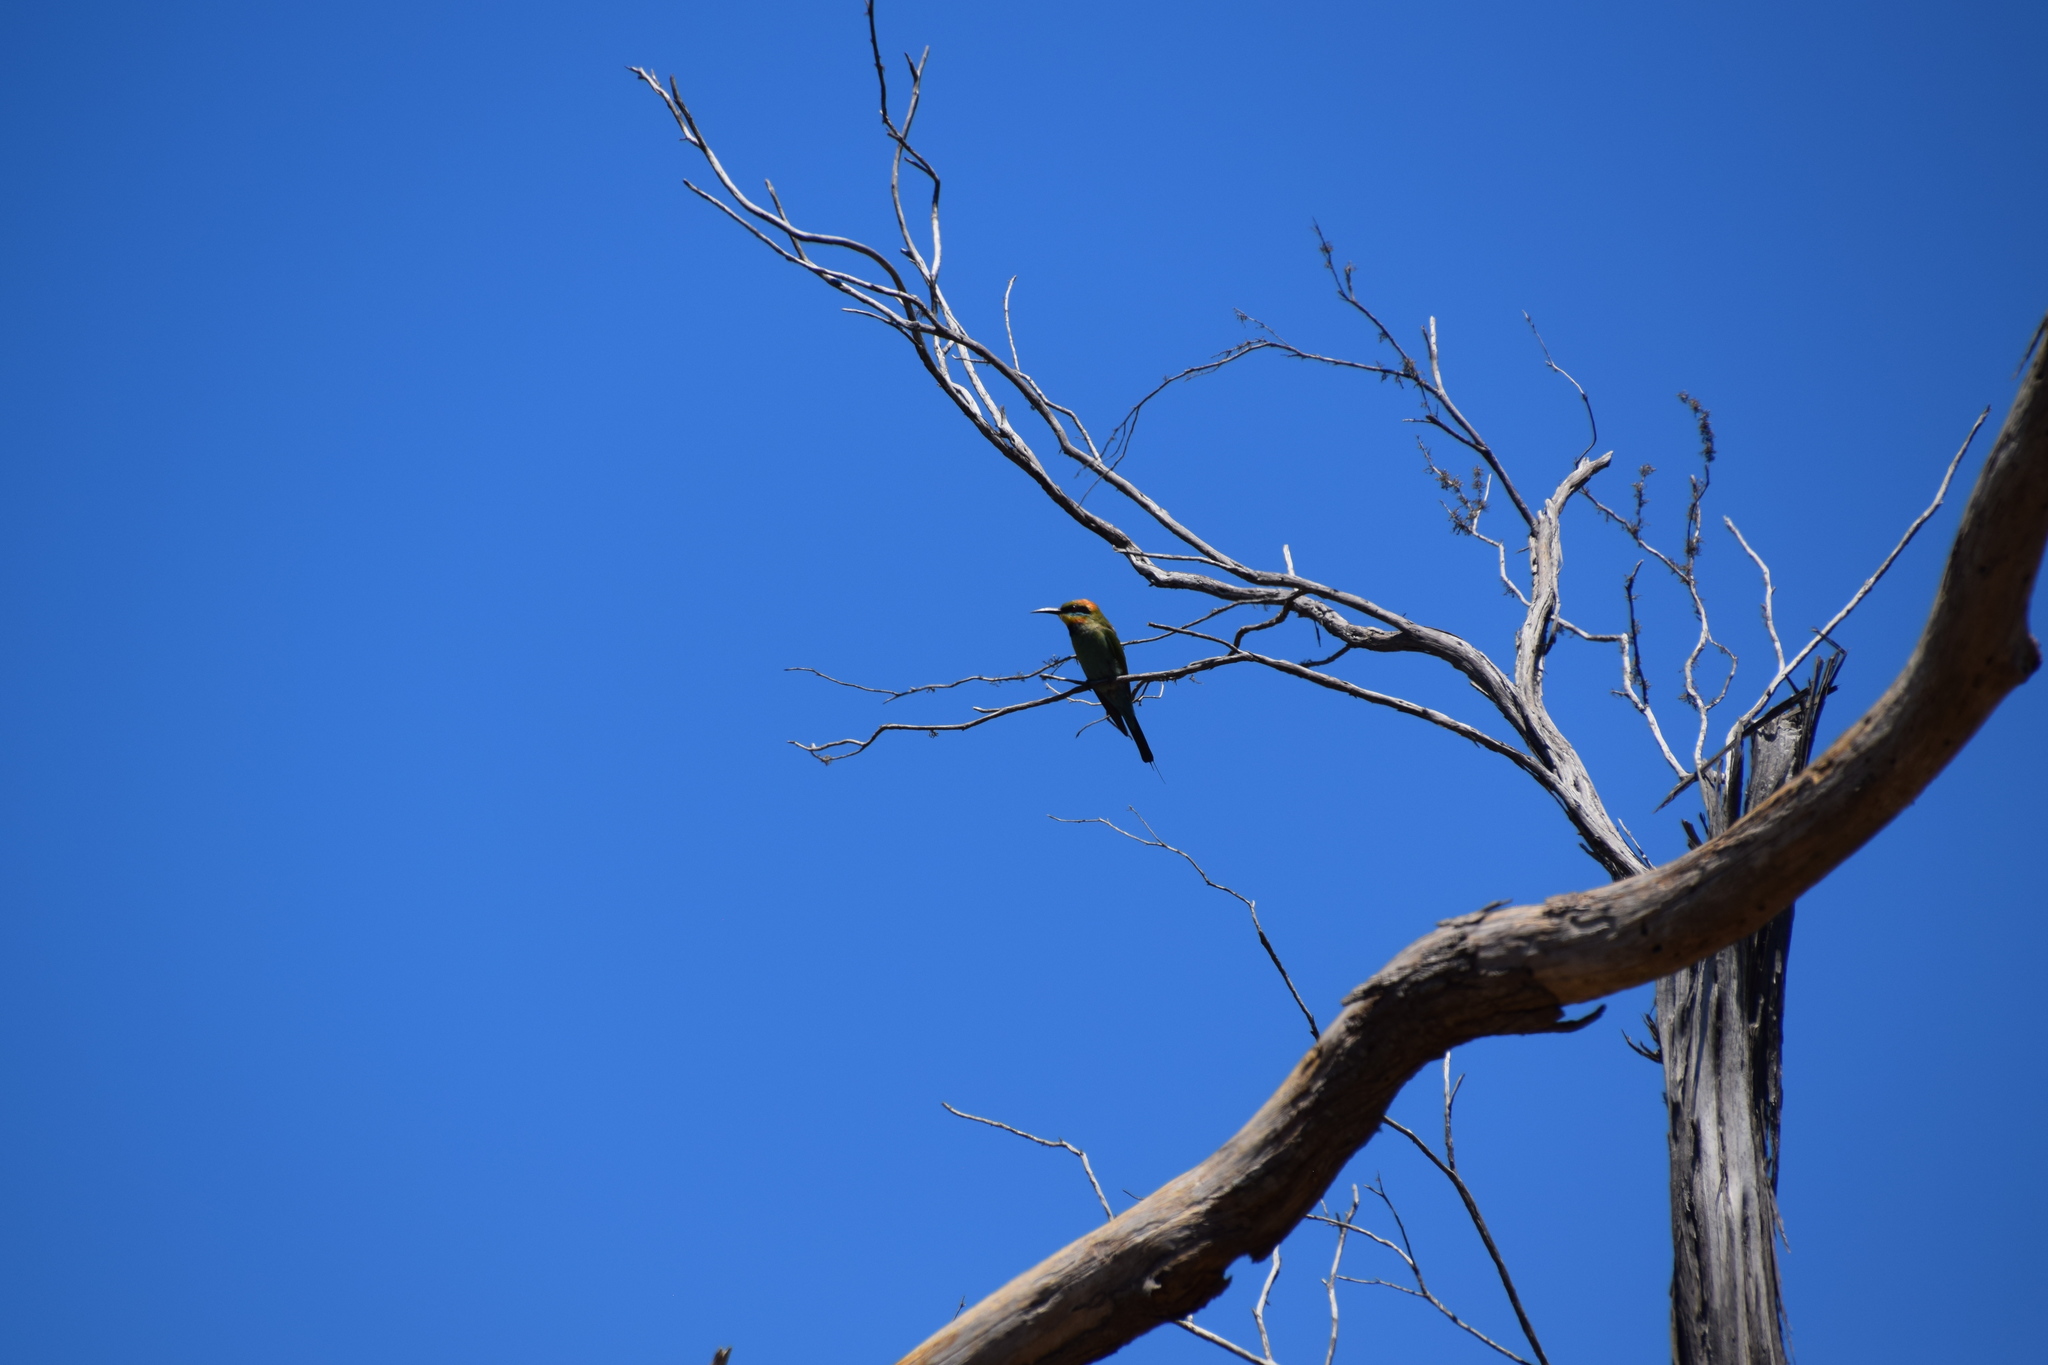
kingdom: Animalia
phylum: Chordata
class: Aves
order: Coraciiformes
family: Meropidae
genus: Merops
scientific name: Merops ornatus
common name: Rainbow bee-eater
